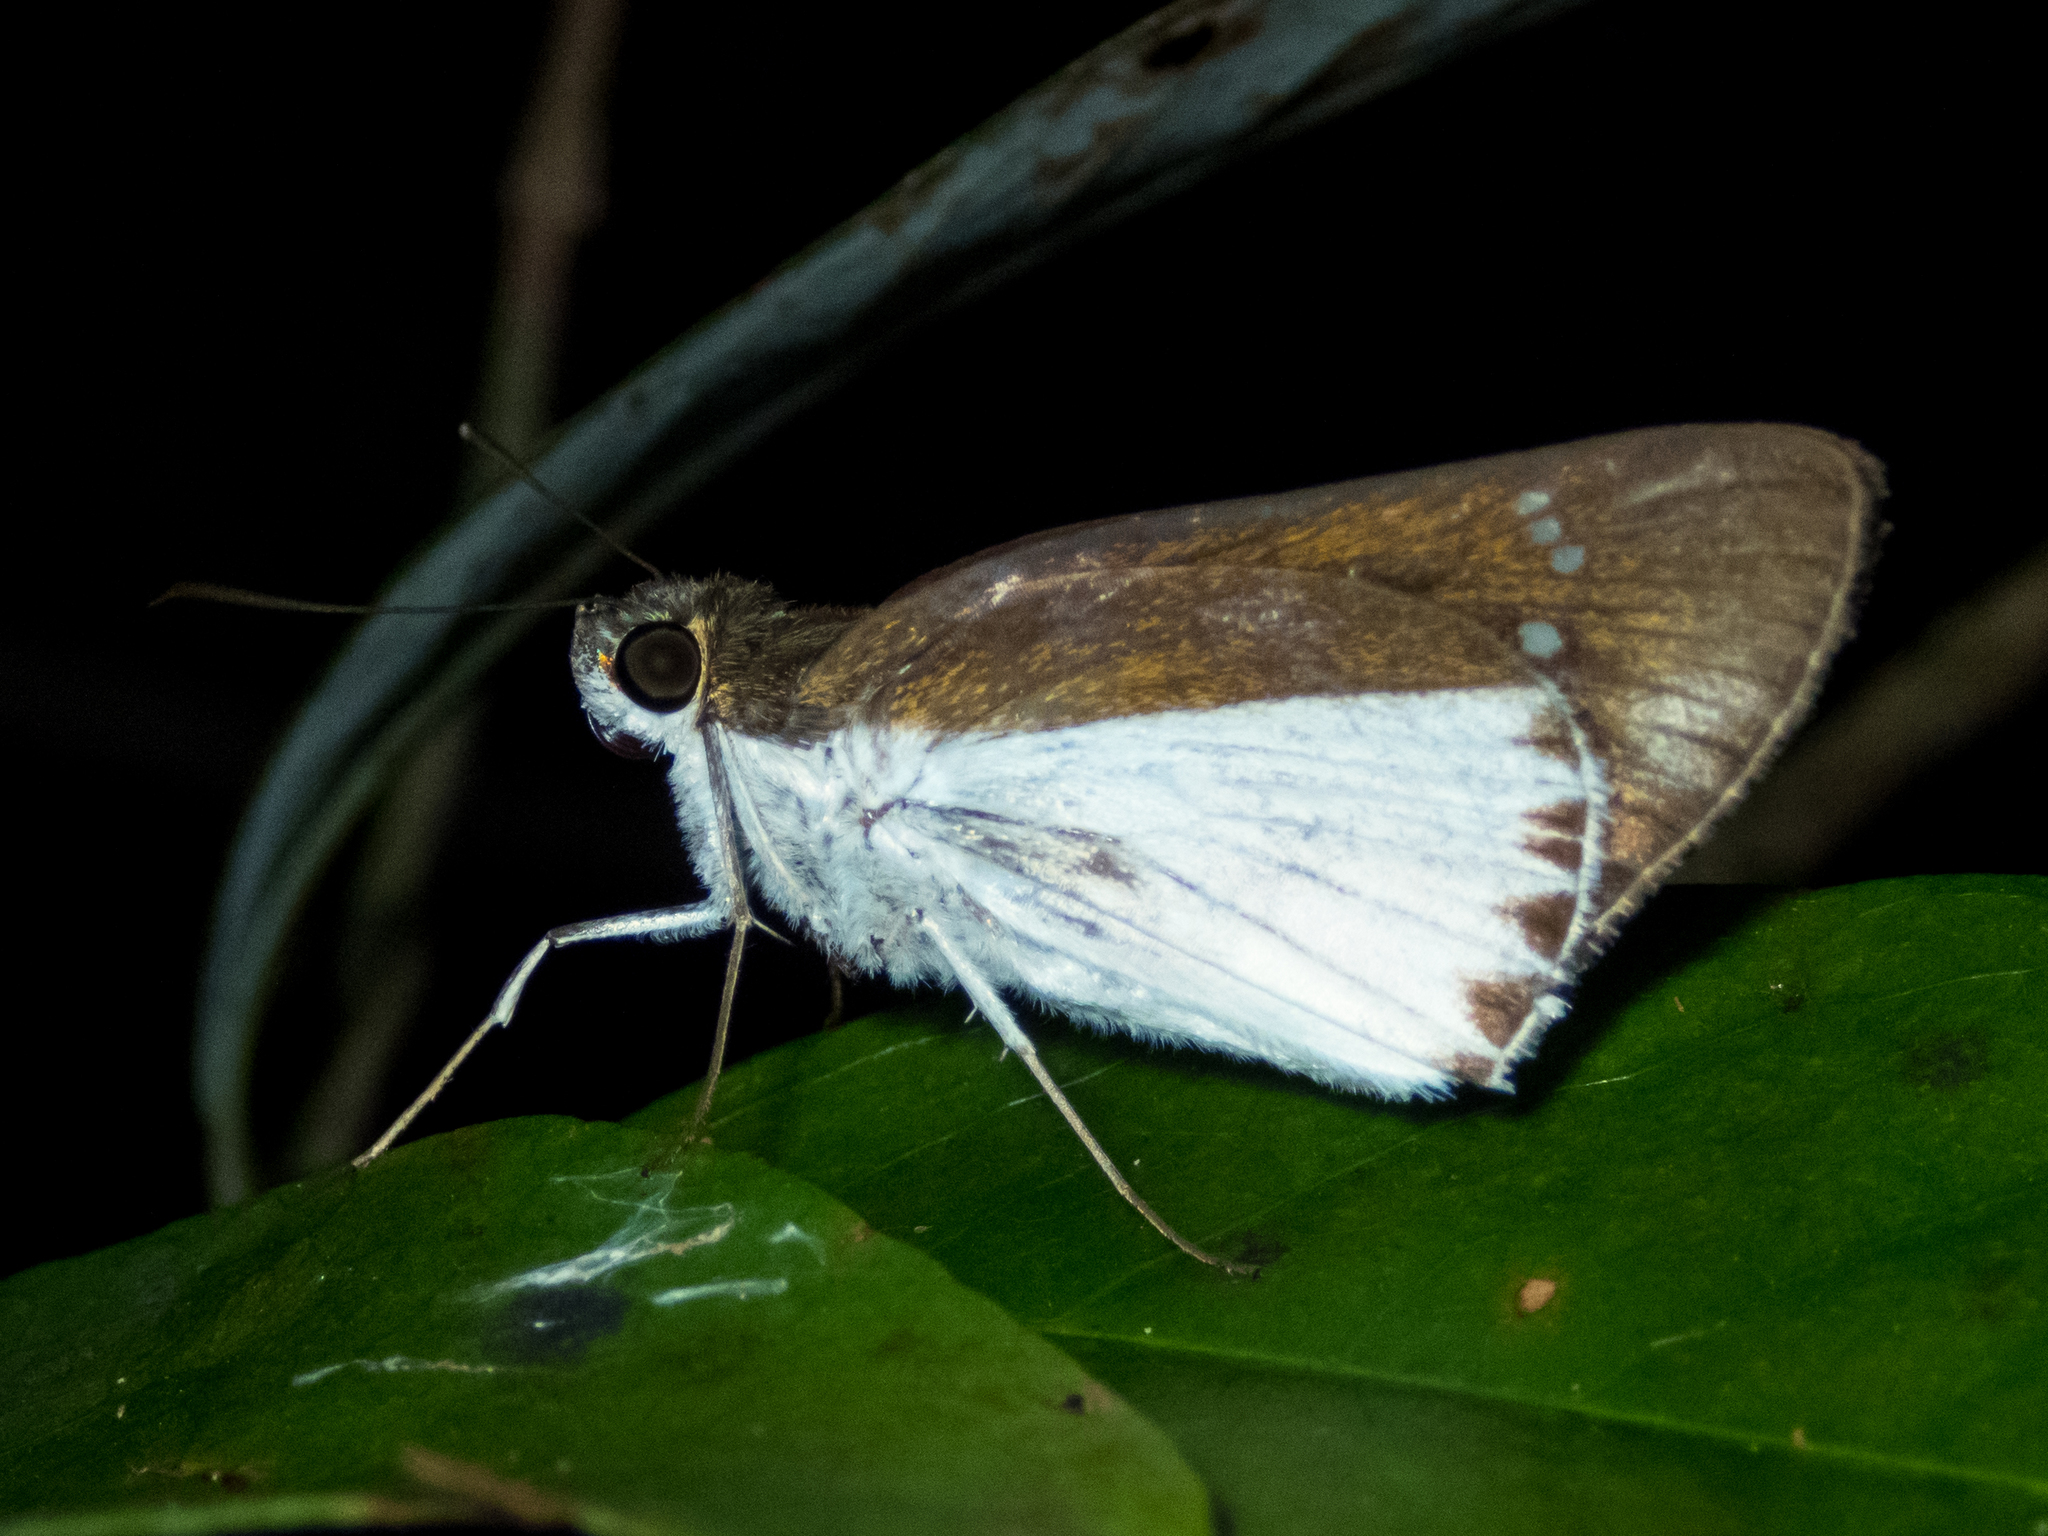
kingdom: Animalia
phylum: Arthropoda
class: Insecta
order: Lepidoptera
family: Hesperiidae
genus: Iton
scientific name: Iton semamora
